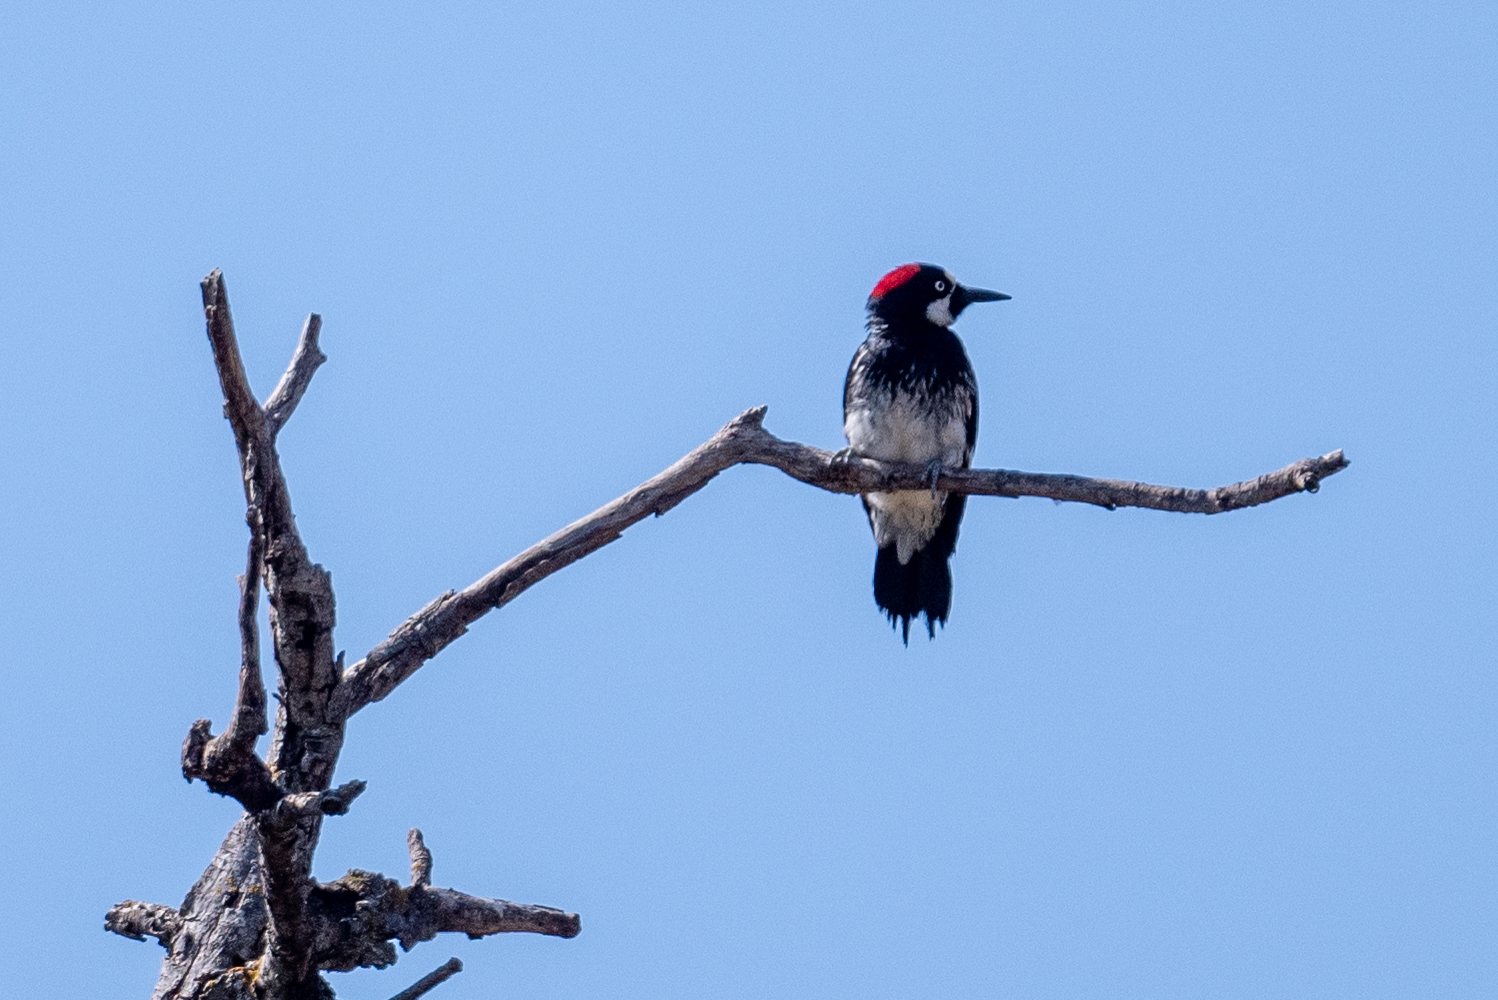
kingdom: Animalia
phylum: Chordata
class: Aves
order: Piciformes
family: Picidae
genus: Melanerpes
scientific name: Melanerpes formicivorus
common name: Acorn woodpecker
